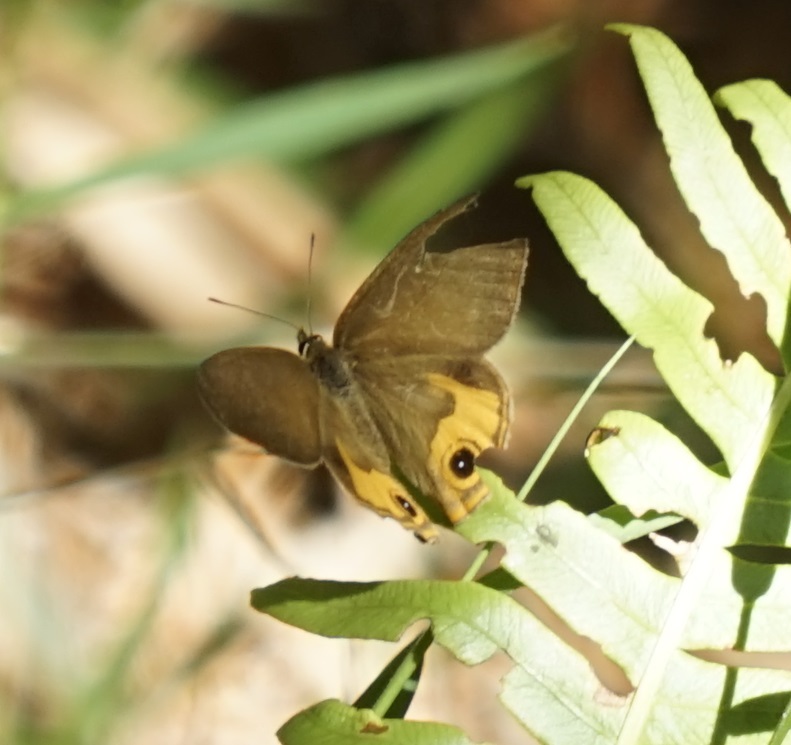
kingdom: Animalia
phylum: Arthropoda
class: Insecta
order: Lepidoptera
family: Nymphalidae
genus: Hypocysta
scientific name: Hypocysta metirius
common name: Brown ringlet
